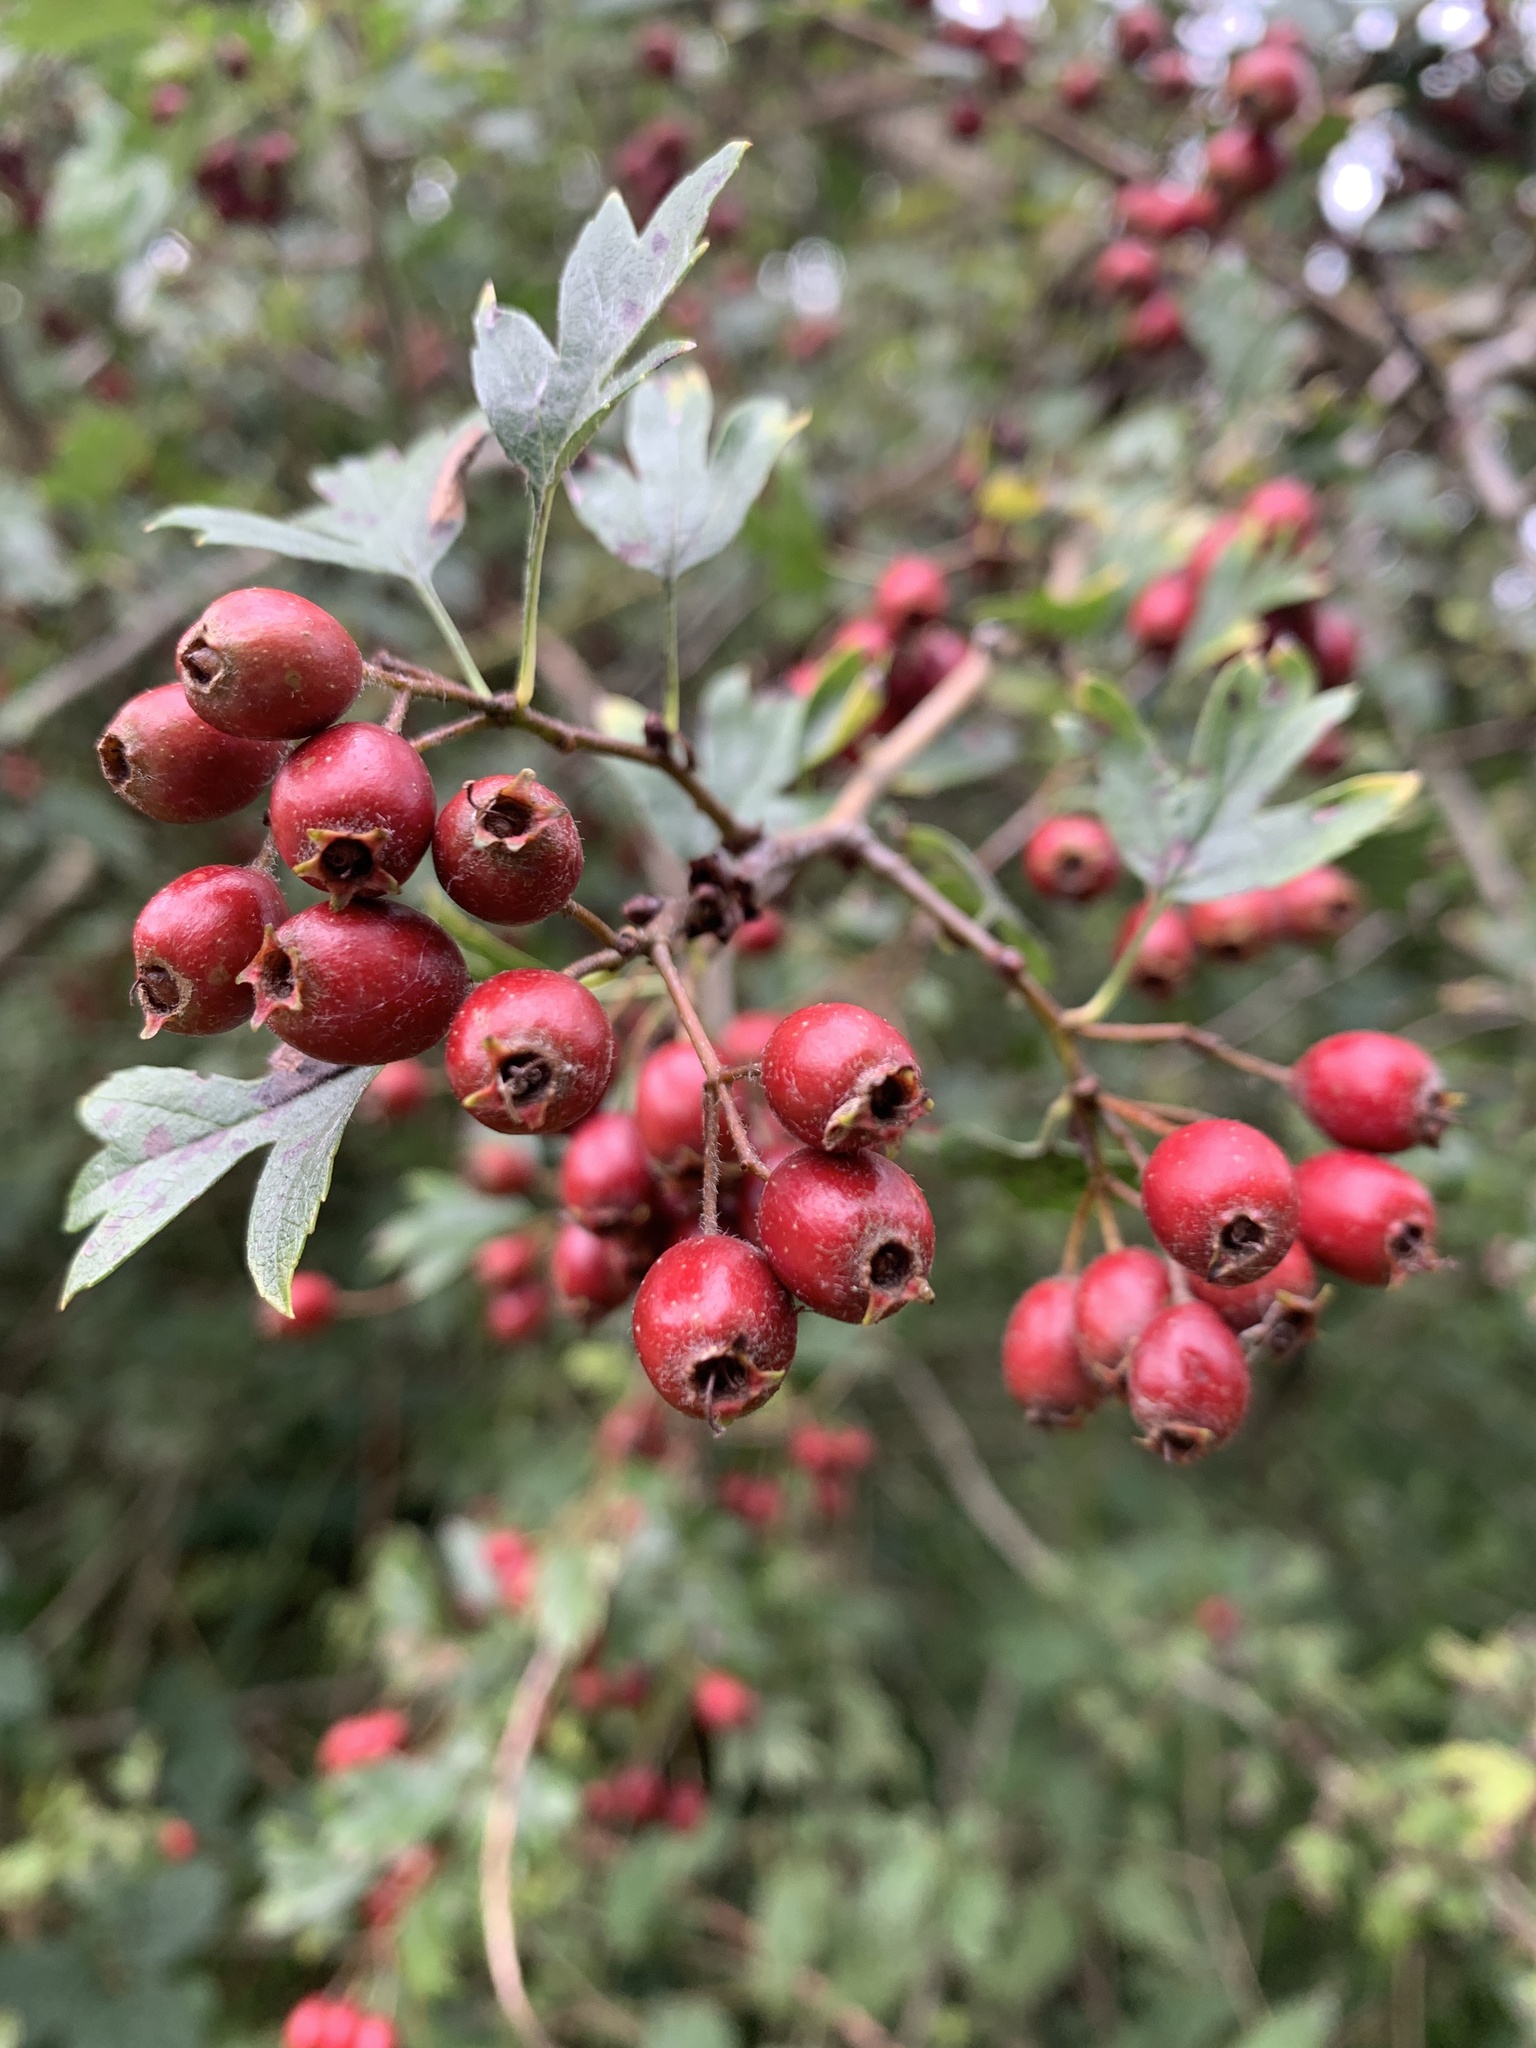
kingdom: Plantae
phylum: Tracheophyta
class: Magnoliopsida
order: Rosales
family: Rosaceae
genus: Crataegus
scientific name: Crataegus monogyna
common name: Hawthorn
